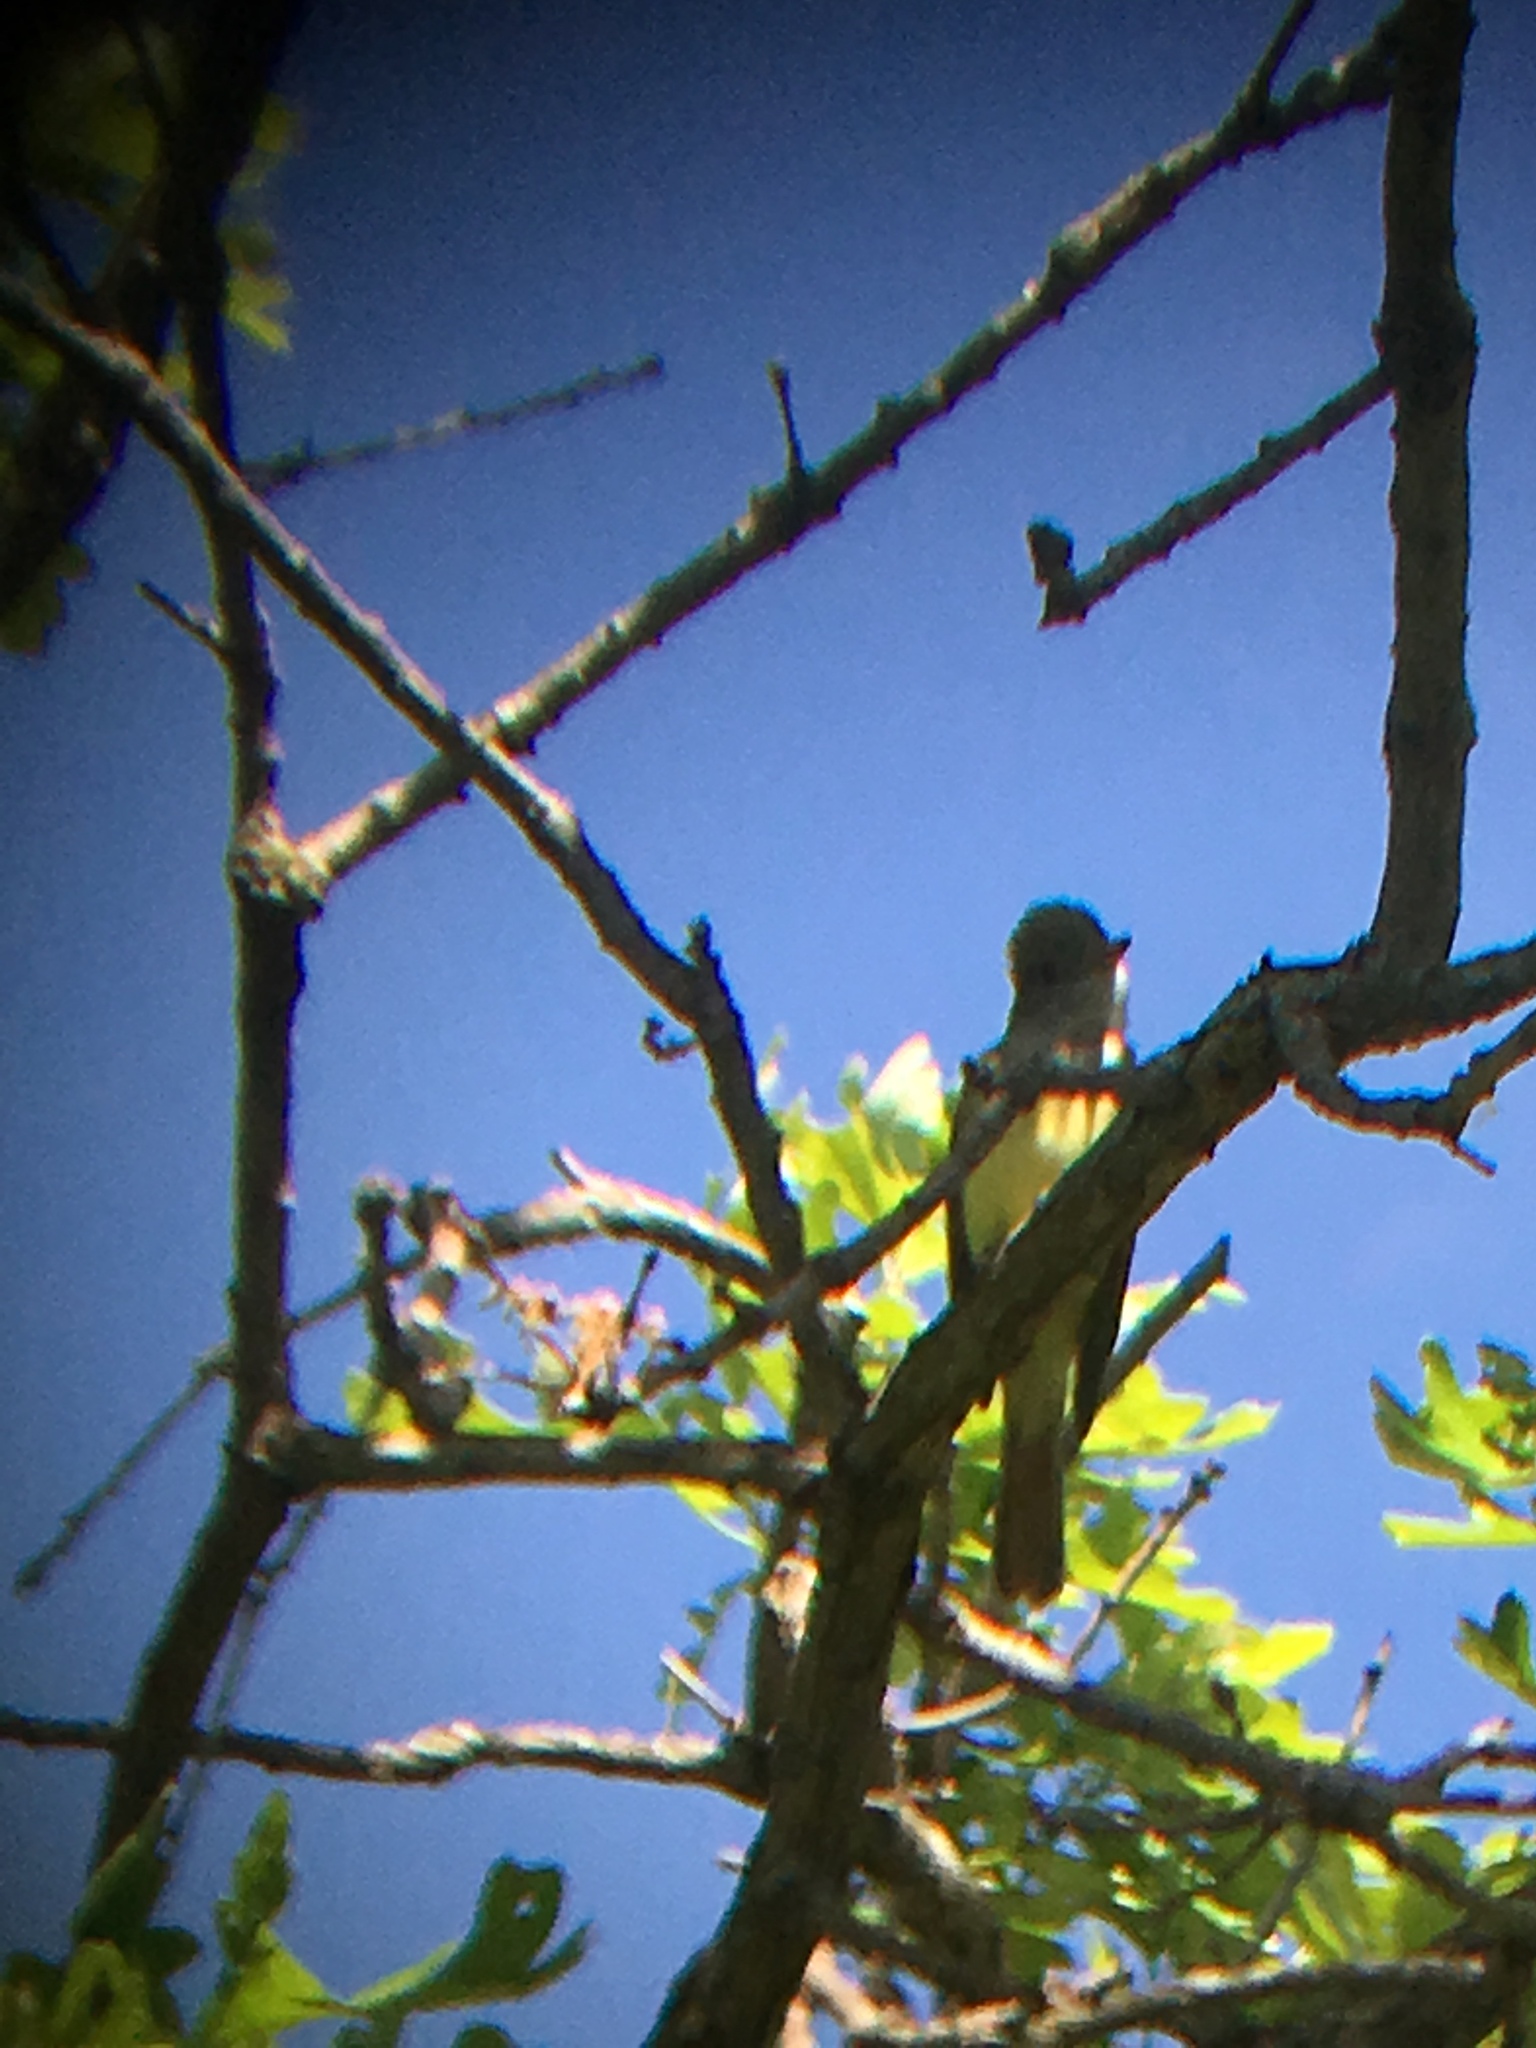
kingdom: Animalia
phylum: Chordata
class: Aves
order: Passeriformes
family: Tyrannidae
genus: Myiarchus
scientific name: Myiarchus crinitus
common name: Great crested flycatcher
